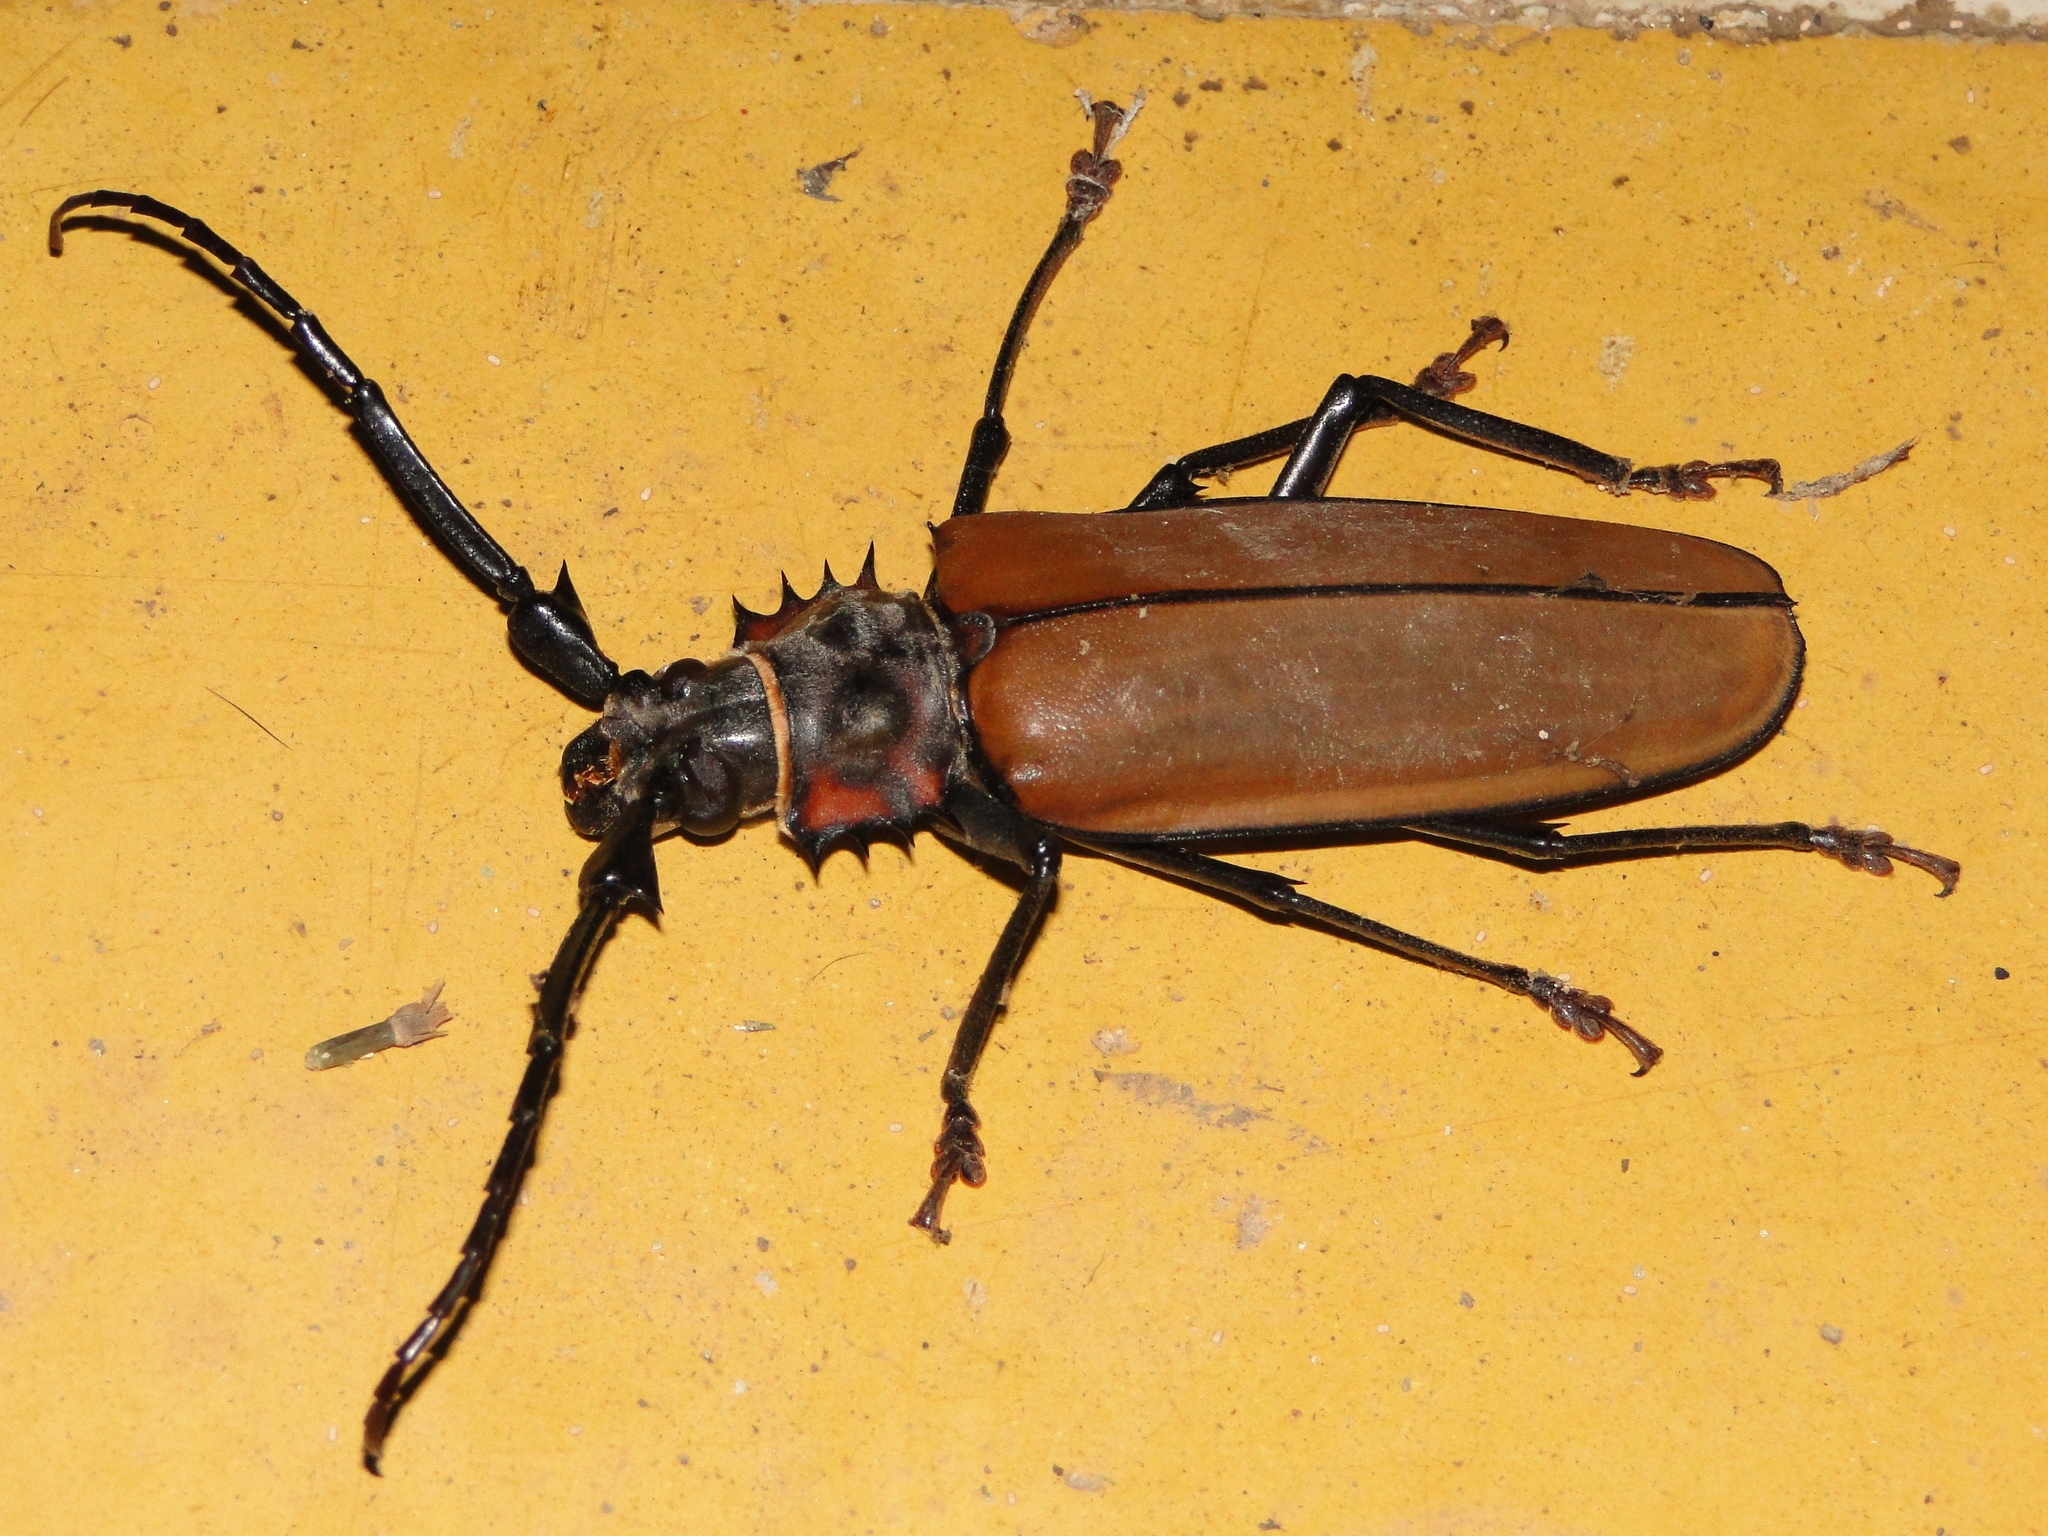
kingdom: Animalia
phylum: Arthropoda
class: Insecta
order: Coleoptera
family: Cerambycidae
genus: Enoplocerus
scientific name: Enoplocerus armillatus
